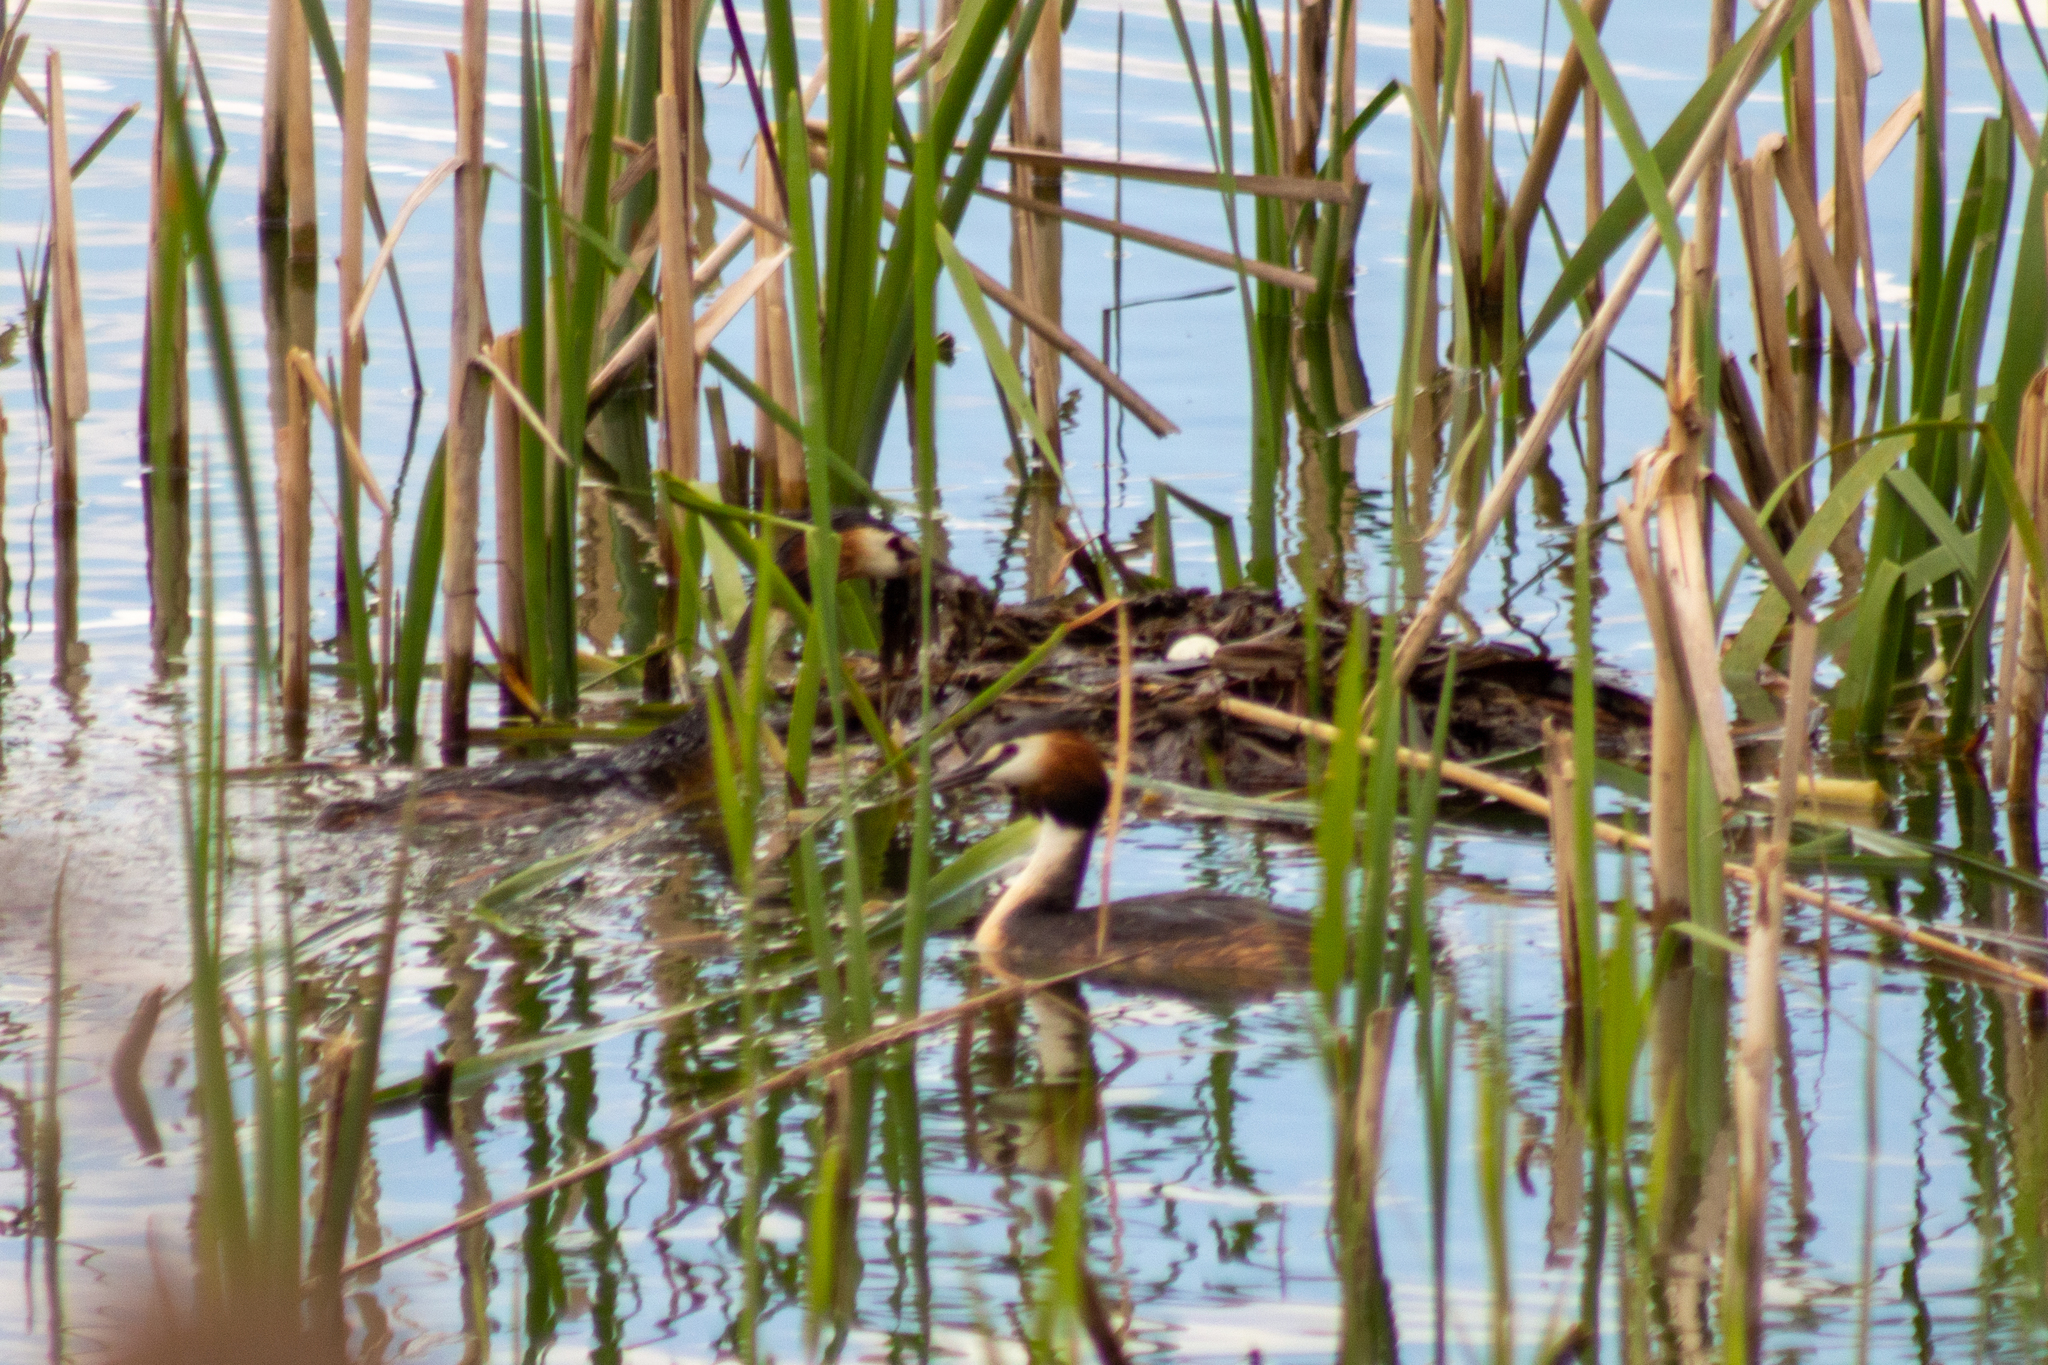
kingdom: Animalia
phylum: Chordata
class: Aves
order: Podicipediformes
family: Podicipedidae
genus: Podiceps
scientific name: Podiceps cristatus
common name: Great crested grebe
